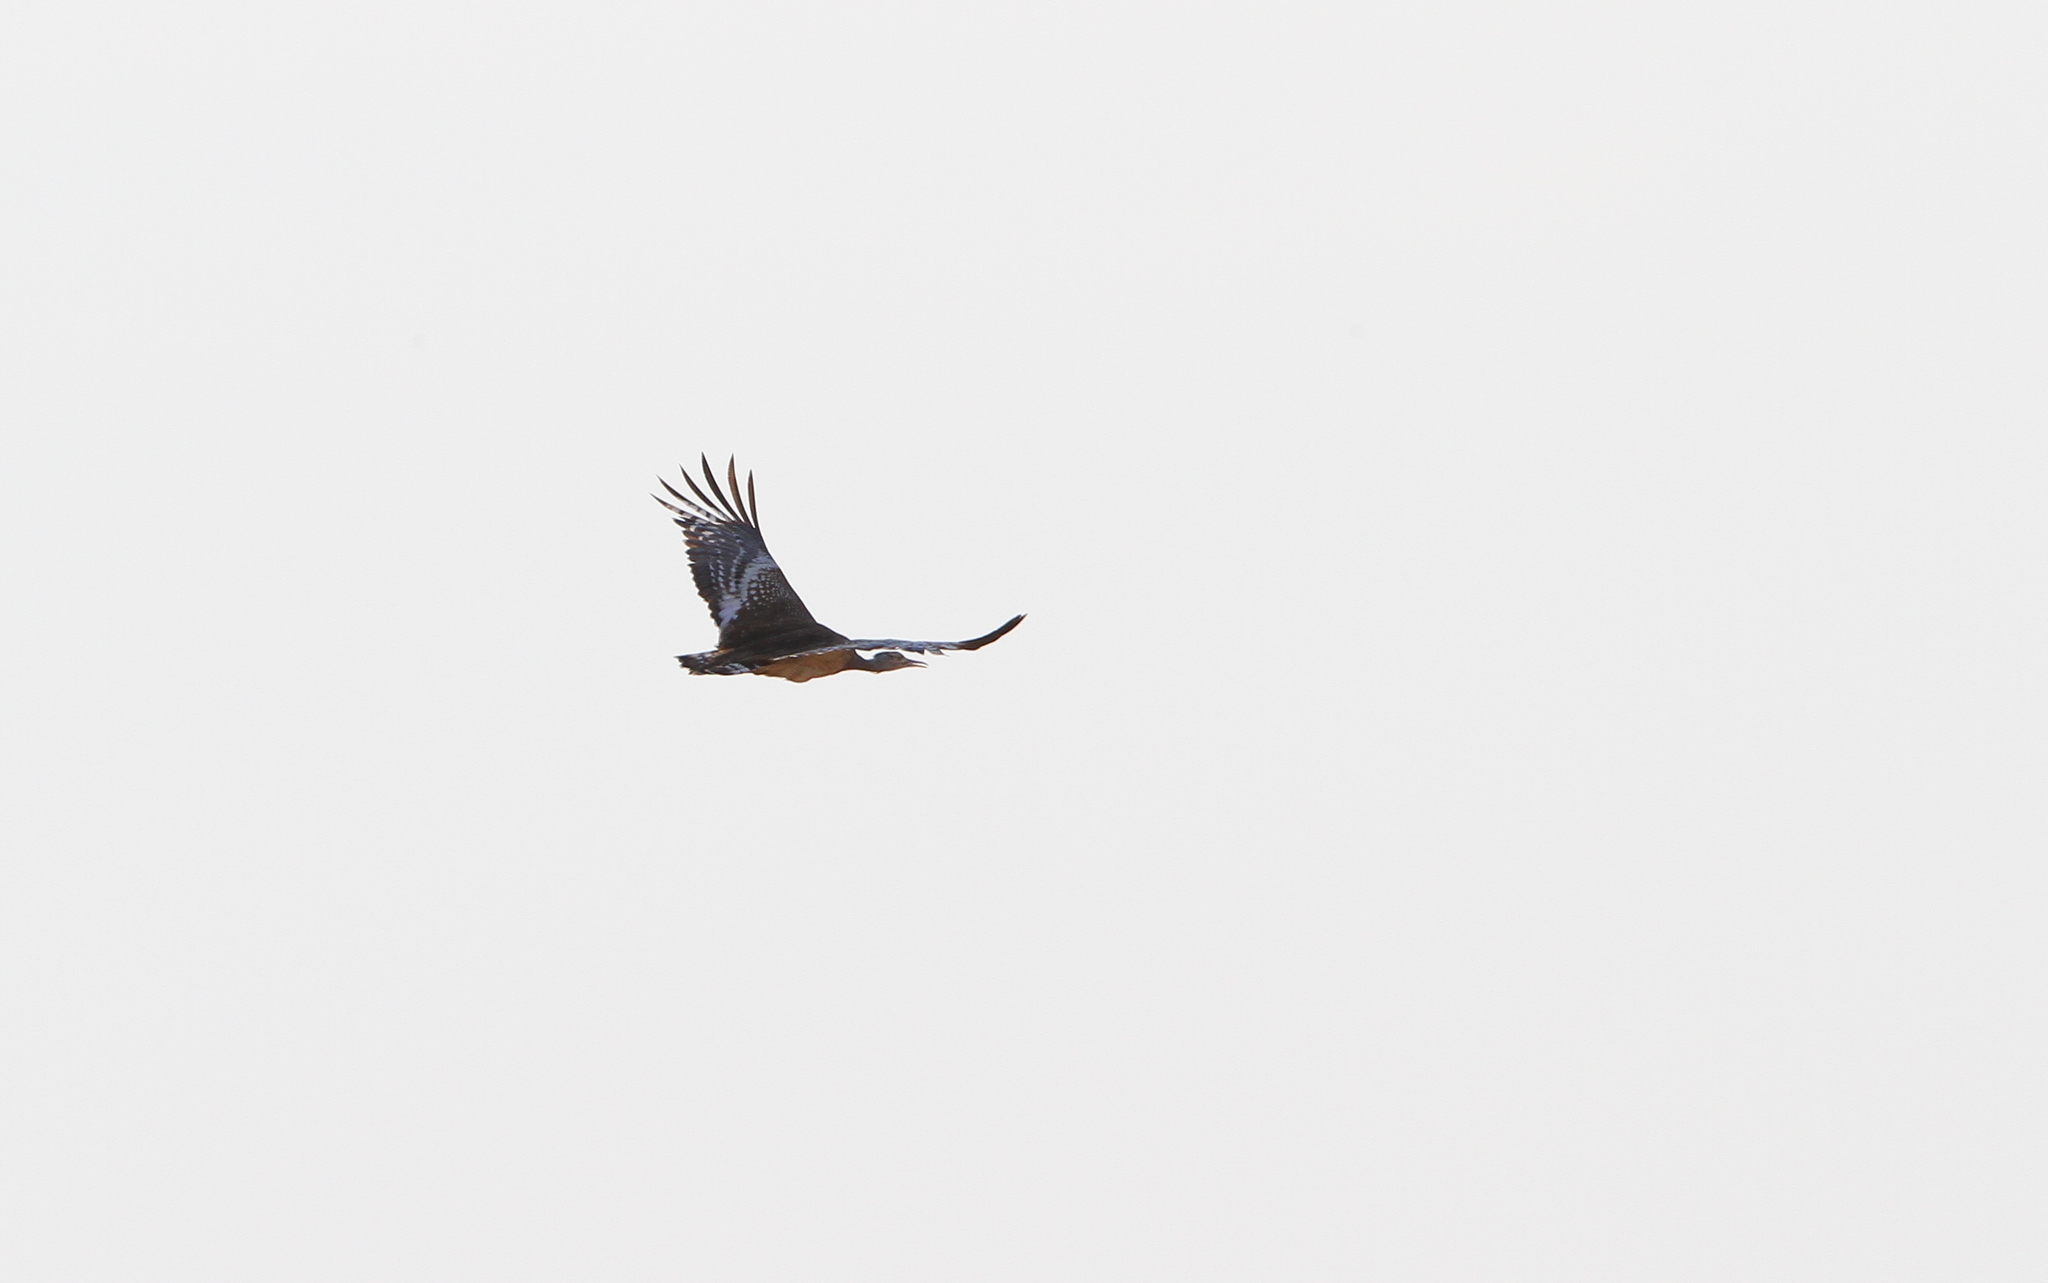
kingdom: Animalia
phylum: Chordata
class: Aves
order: Otidiformes
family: Otididae
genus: Ardeotis
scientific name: Ardeotis arabs
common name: Arabian bustard
